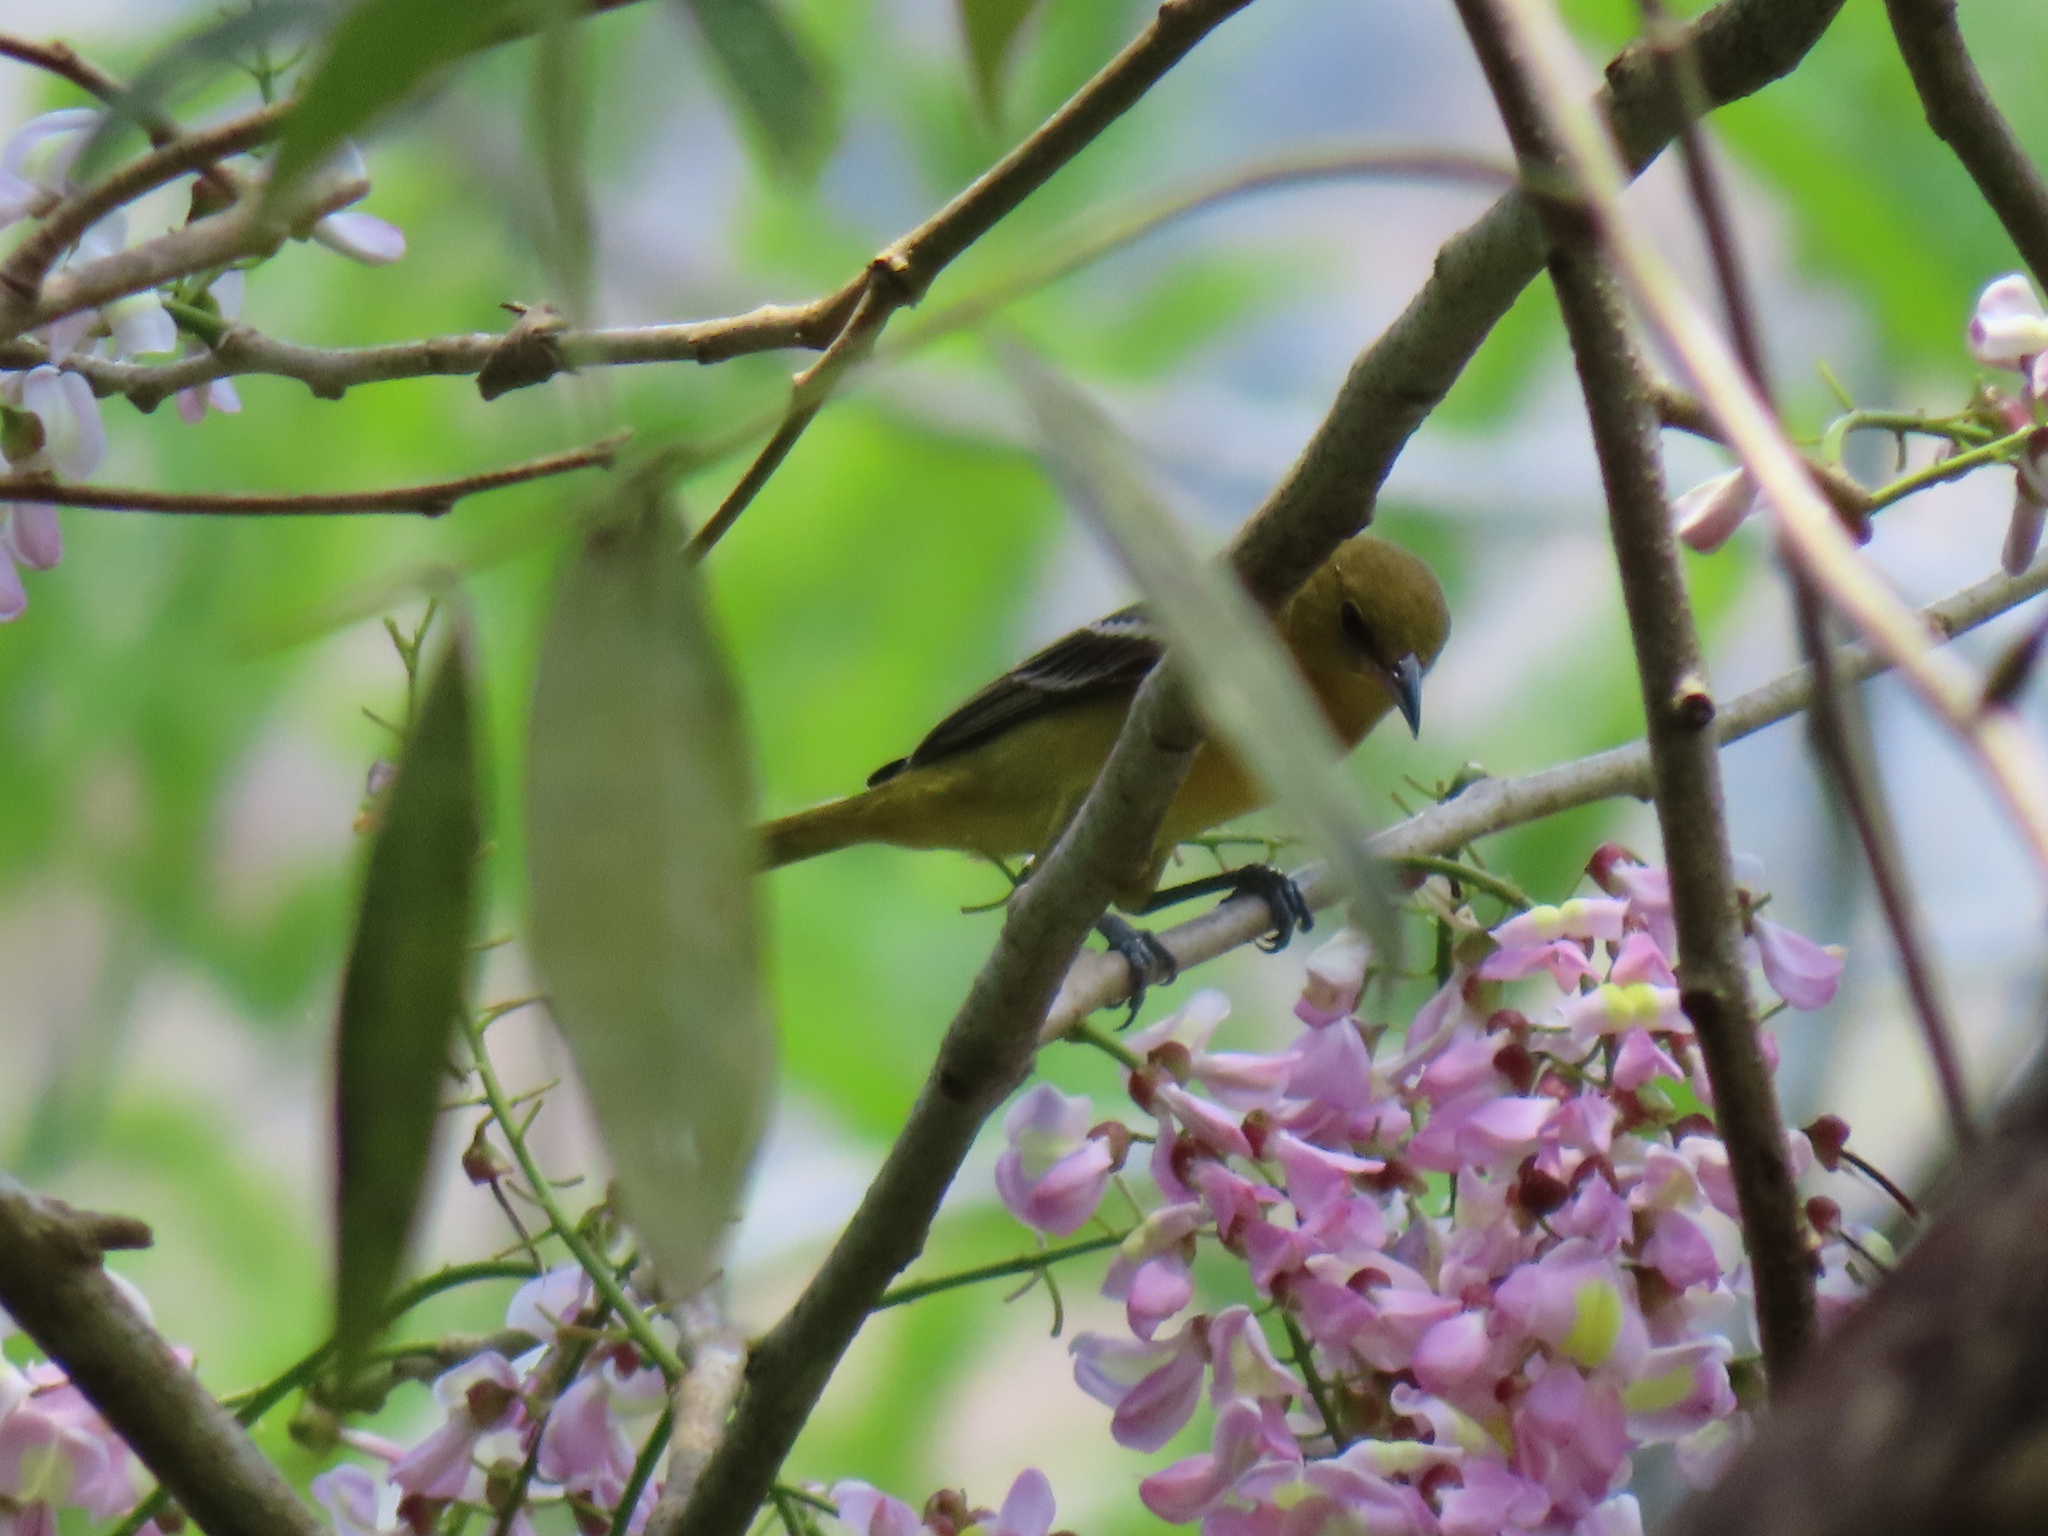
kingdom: Animalia
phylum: Chordata
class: Aves
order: Passeriformes
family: Icteridae
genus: Icterus
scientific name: Icterus spurius
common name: Orchard oriole
